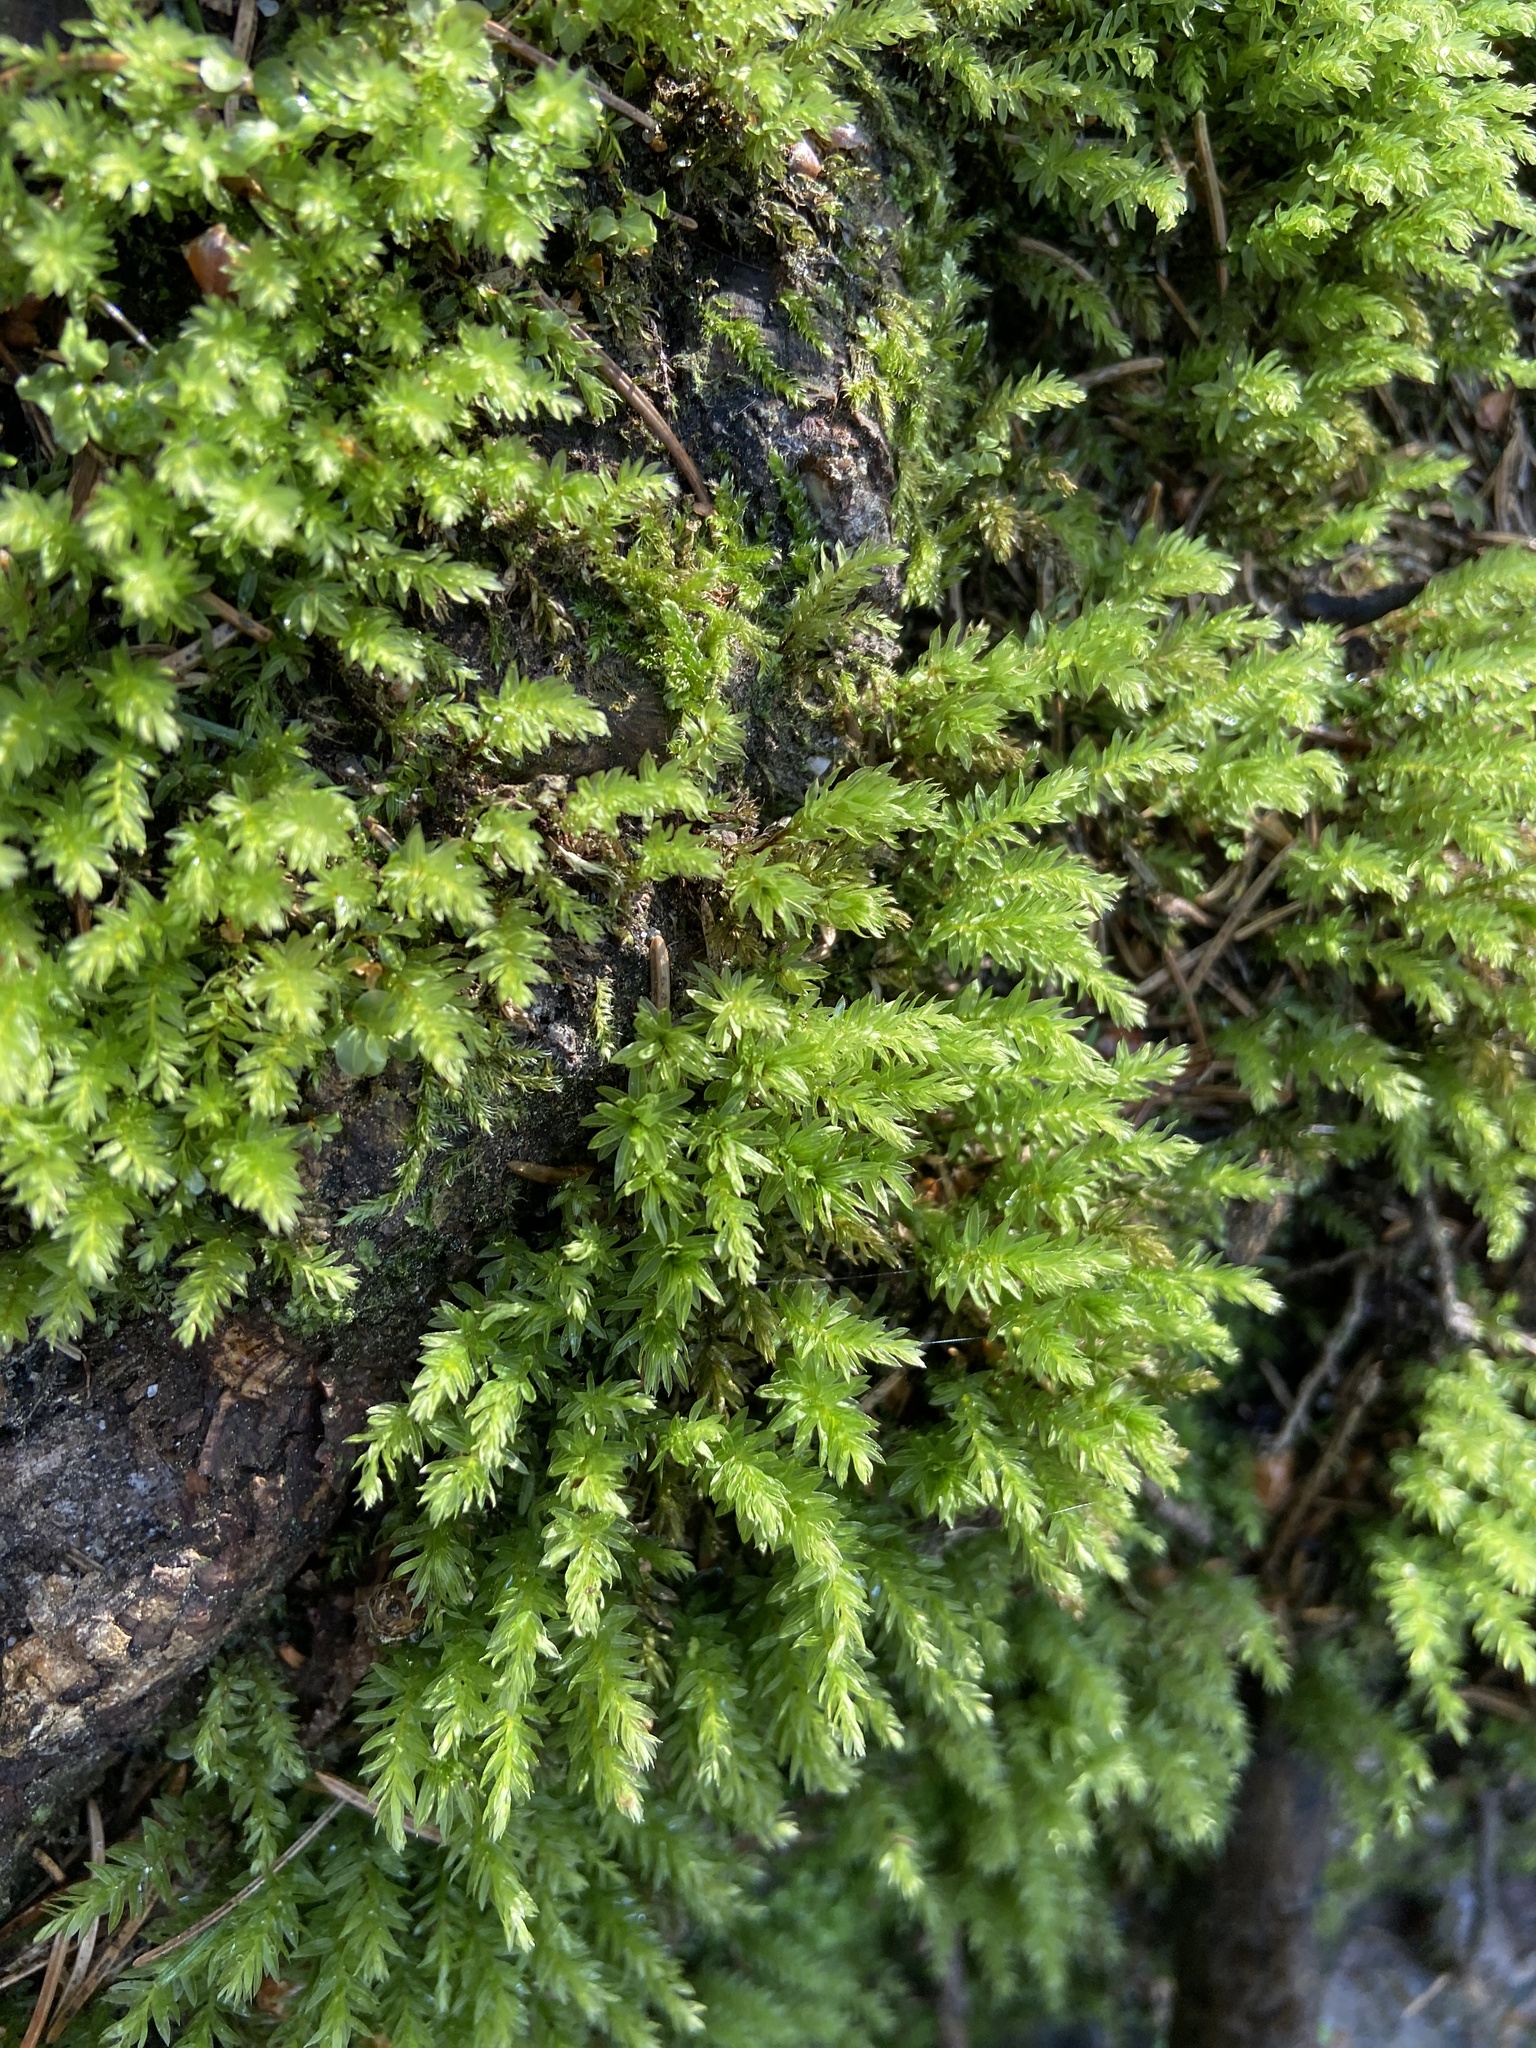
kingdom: Plantae
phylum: Bryophyta
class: Bryopsida
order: Bryales
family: Mniaceae
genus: Mnium
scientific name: Mnium hornum
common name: Swan's-neck leafy moss
